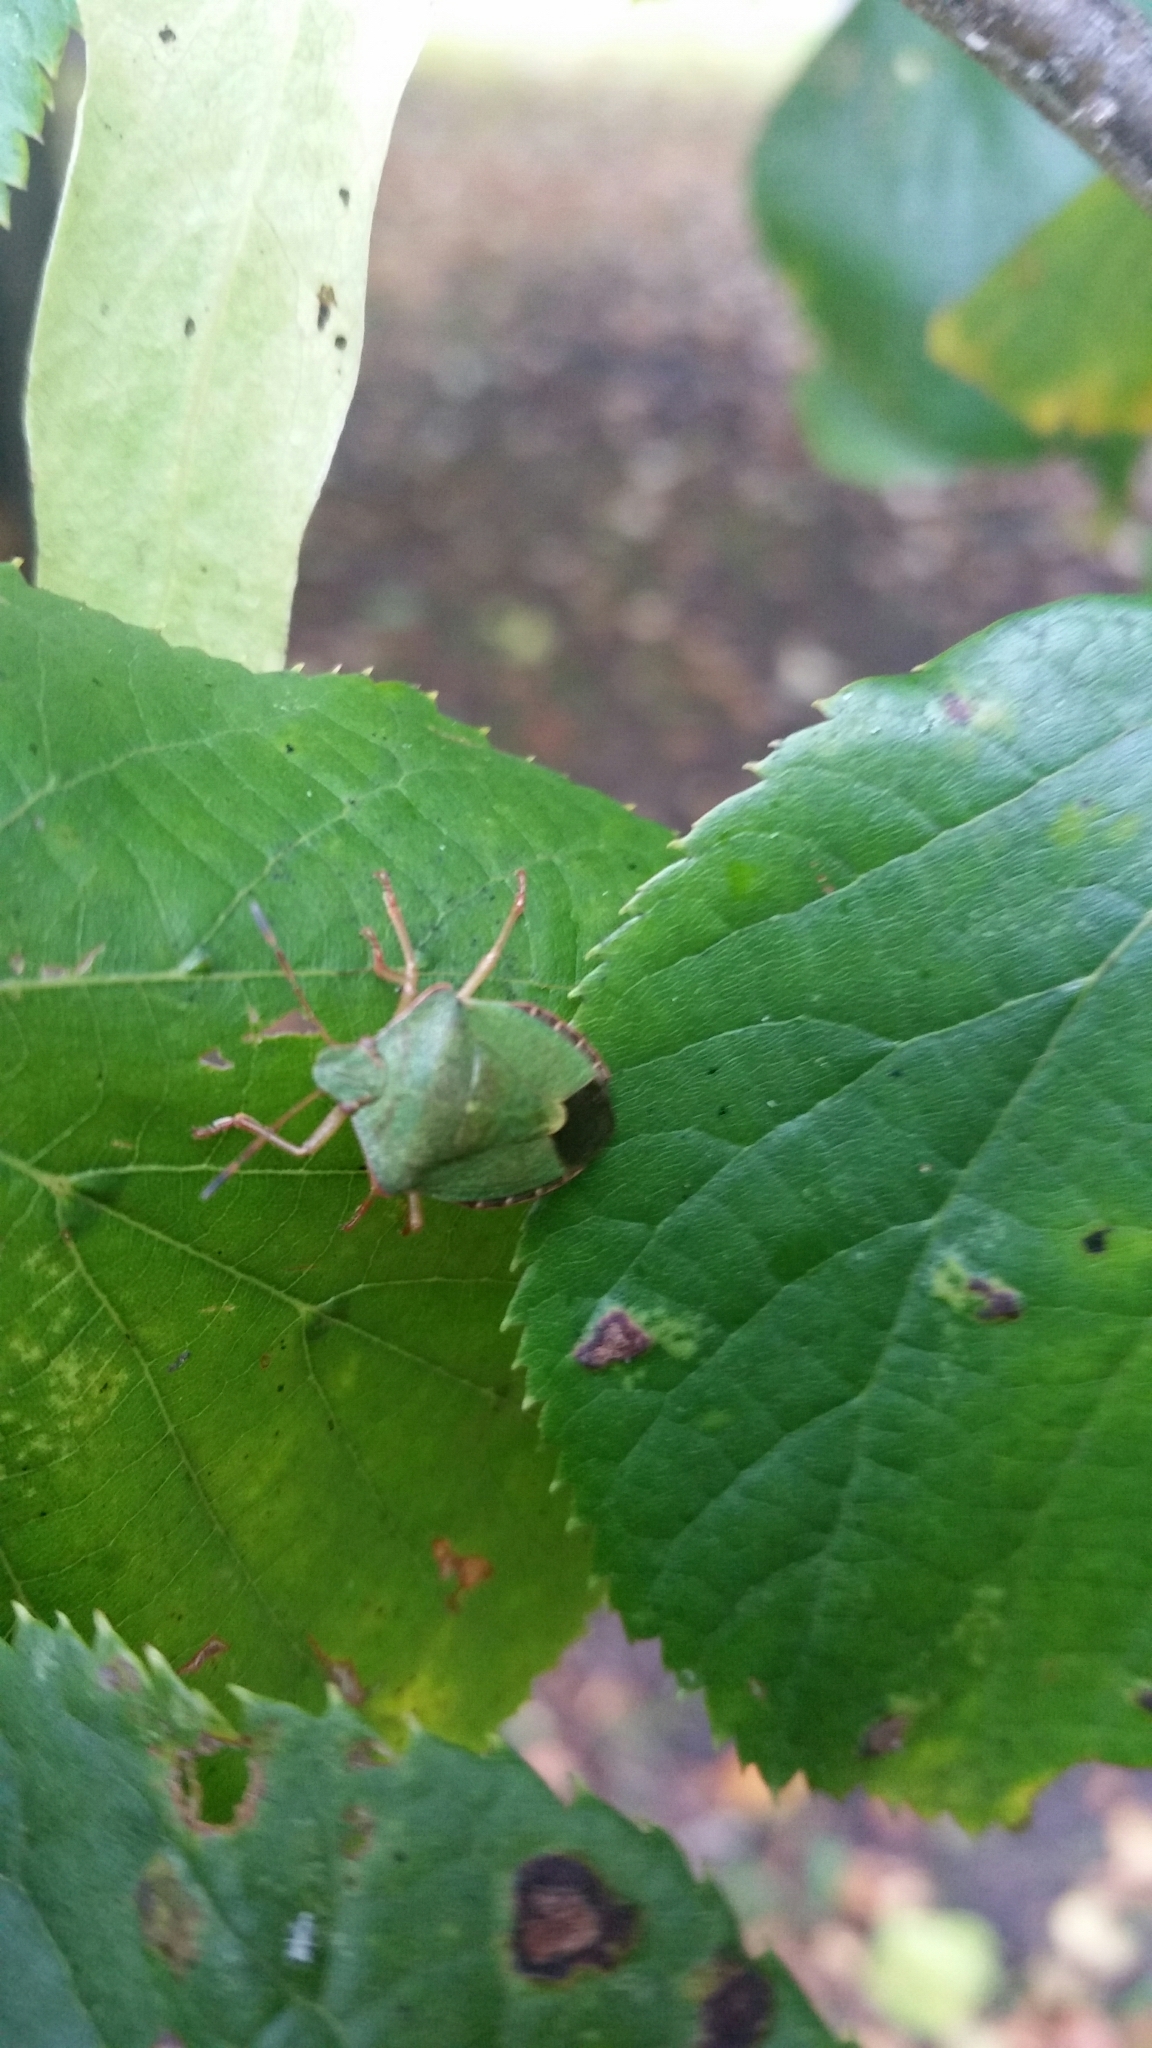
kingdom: Animalia
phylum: Arthropoda
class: Insecta
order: Hemiptera
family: Pentatomidae
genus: Palomena
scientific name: Palomena prasina
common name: Green shieldbug
